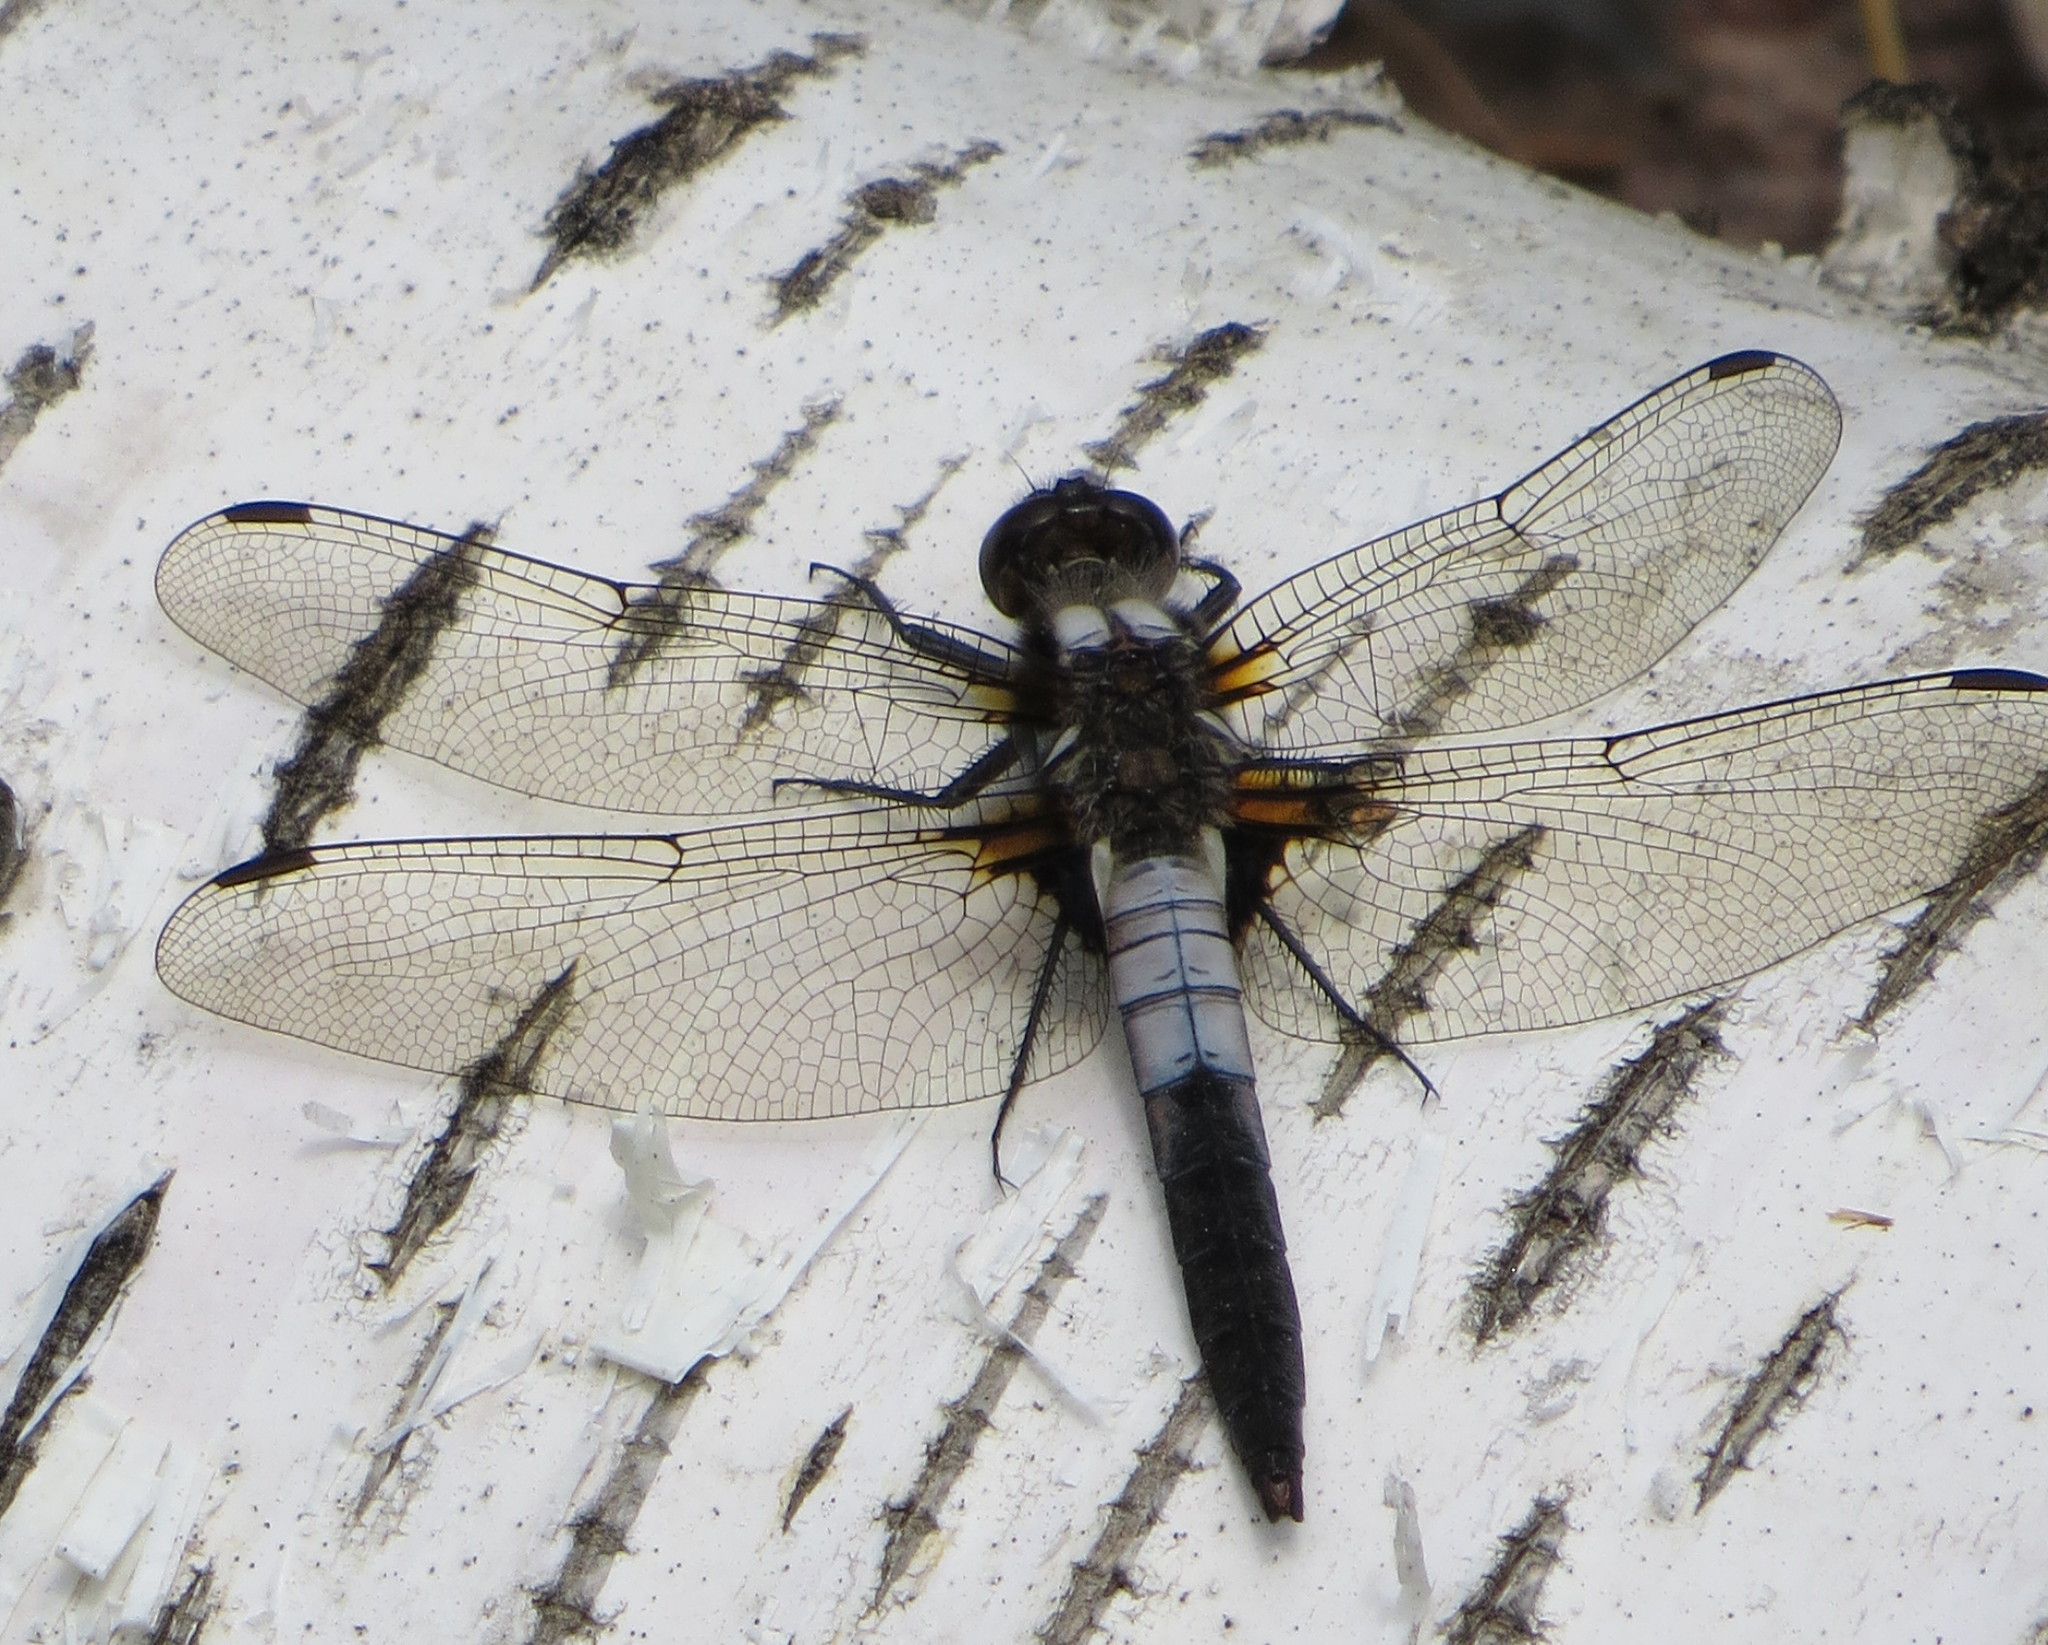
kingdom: Animalia
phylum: Arthropoda
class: Insecta
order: Odonata
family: Libellulidae
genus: Ladona
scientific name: Ladona julia
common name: Chalk-fronted corporal
